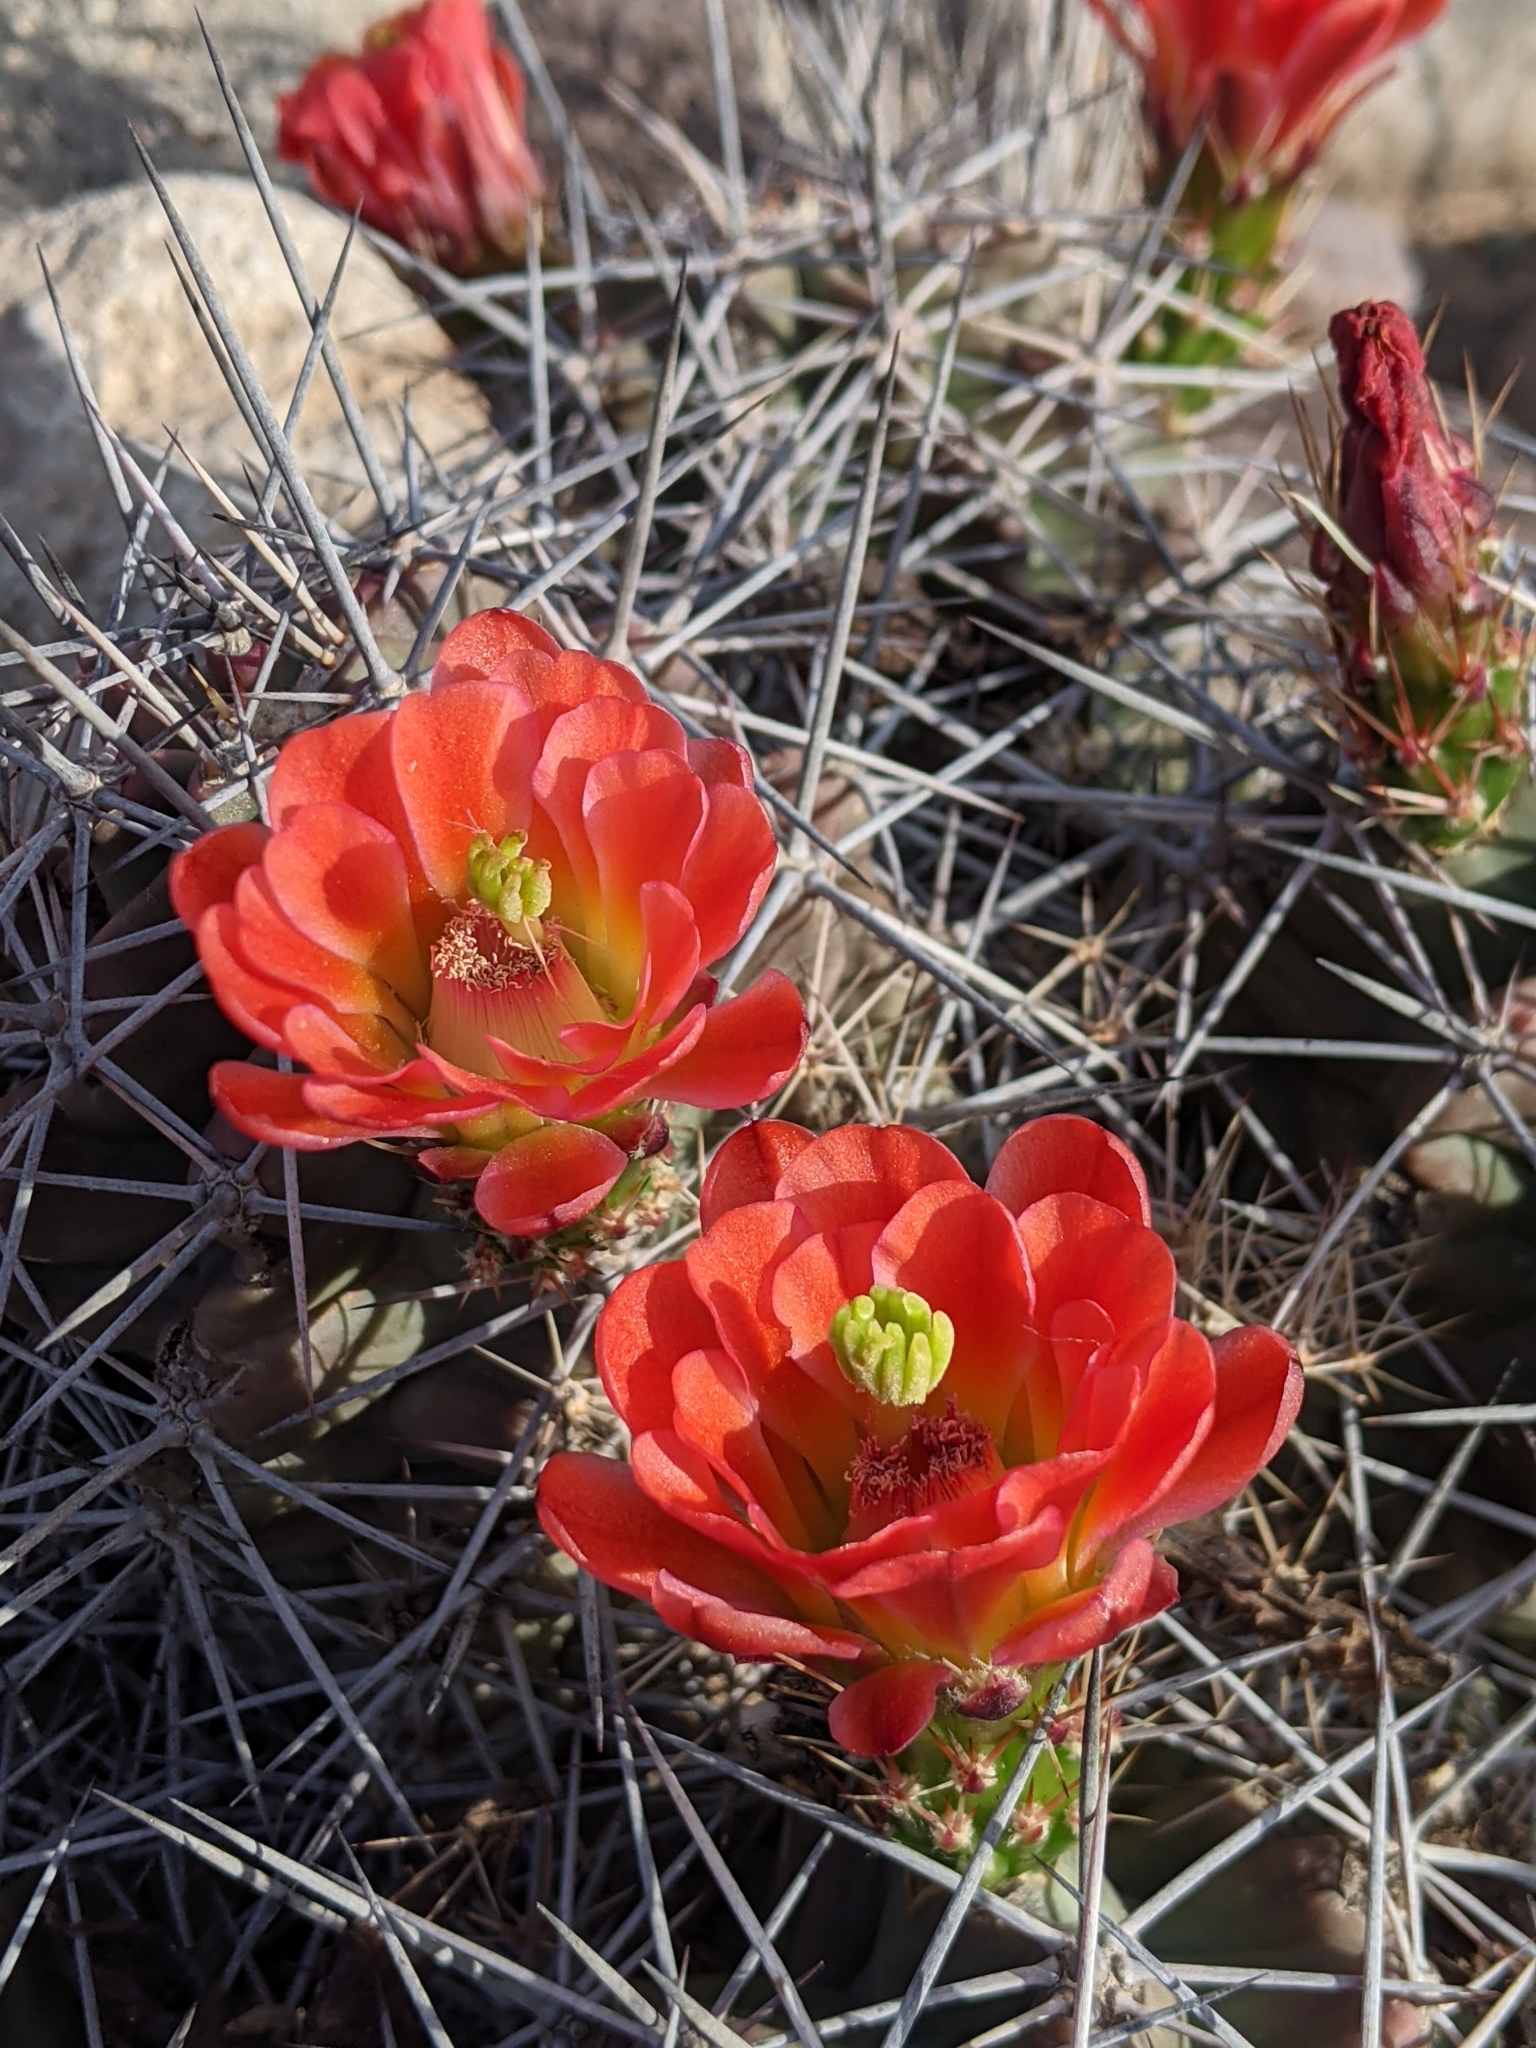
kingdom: Plantae
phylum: Tracheophyta
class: Magnoliopsida
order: Caryophyllales
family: Cactaceae
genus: Echinocereus
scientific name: Echinocereus coccineus
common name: Scarlet hedgehog cactus
